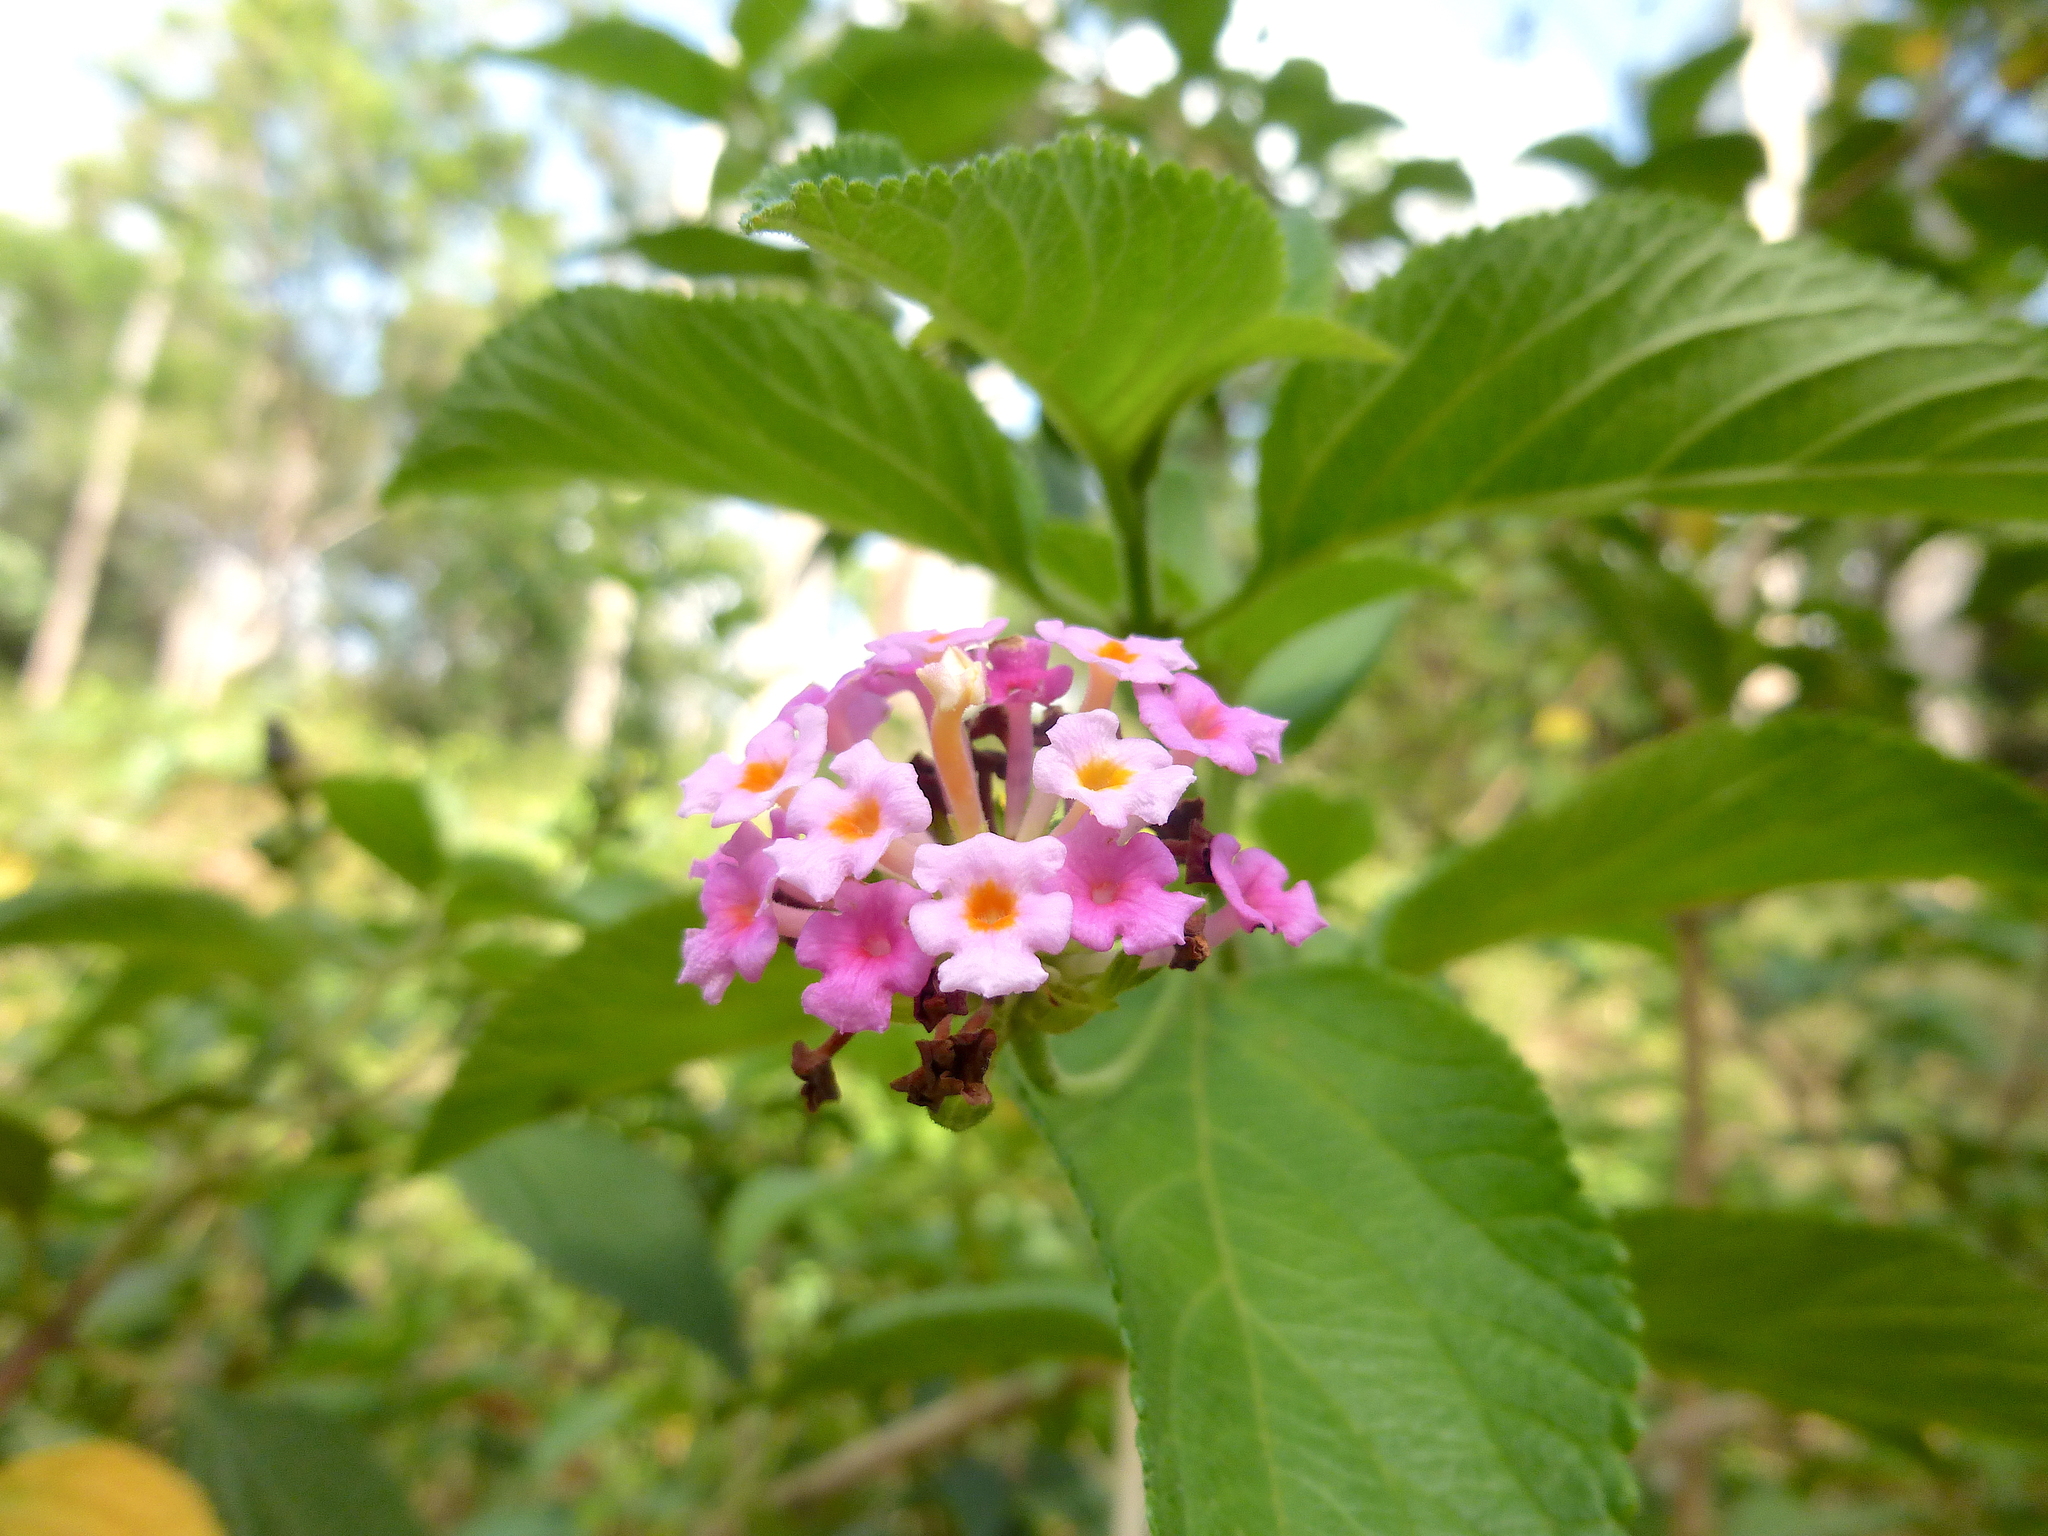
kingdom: Plantae
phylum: Tracheophyta
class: Magnoliopsida
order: Lamiales
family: Verbenaceae
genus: Lantana
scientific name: Lantana camara
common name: Lantana
